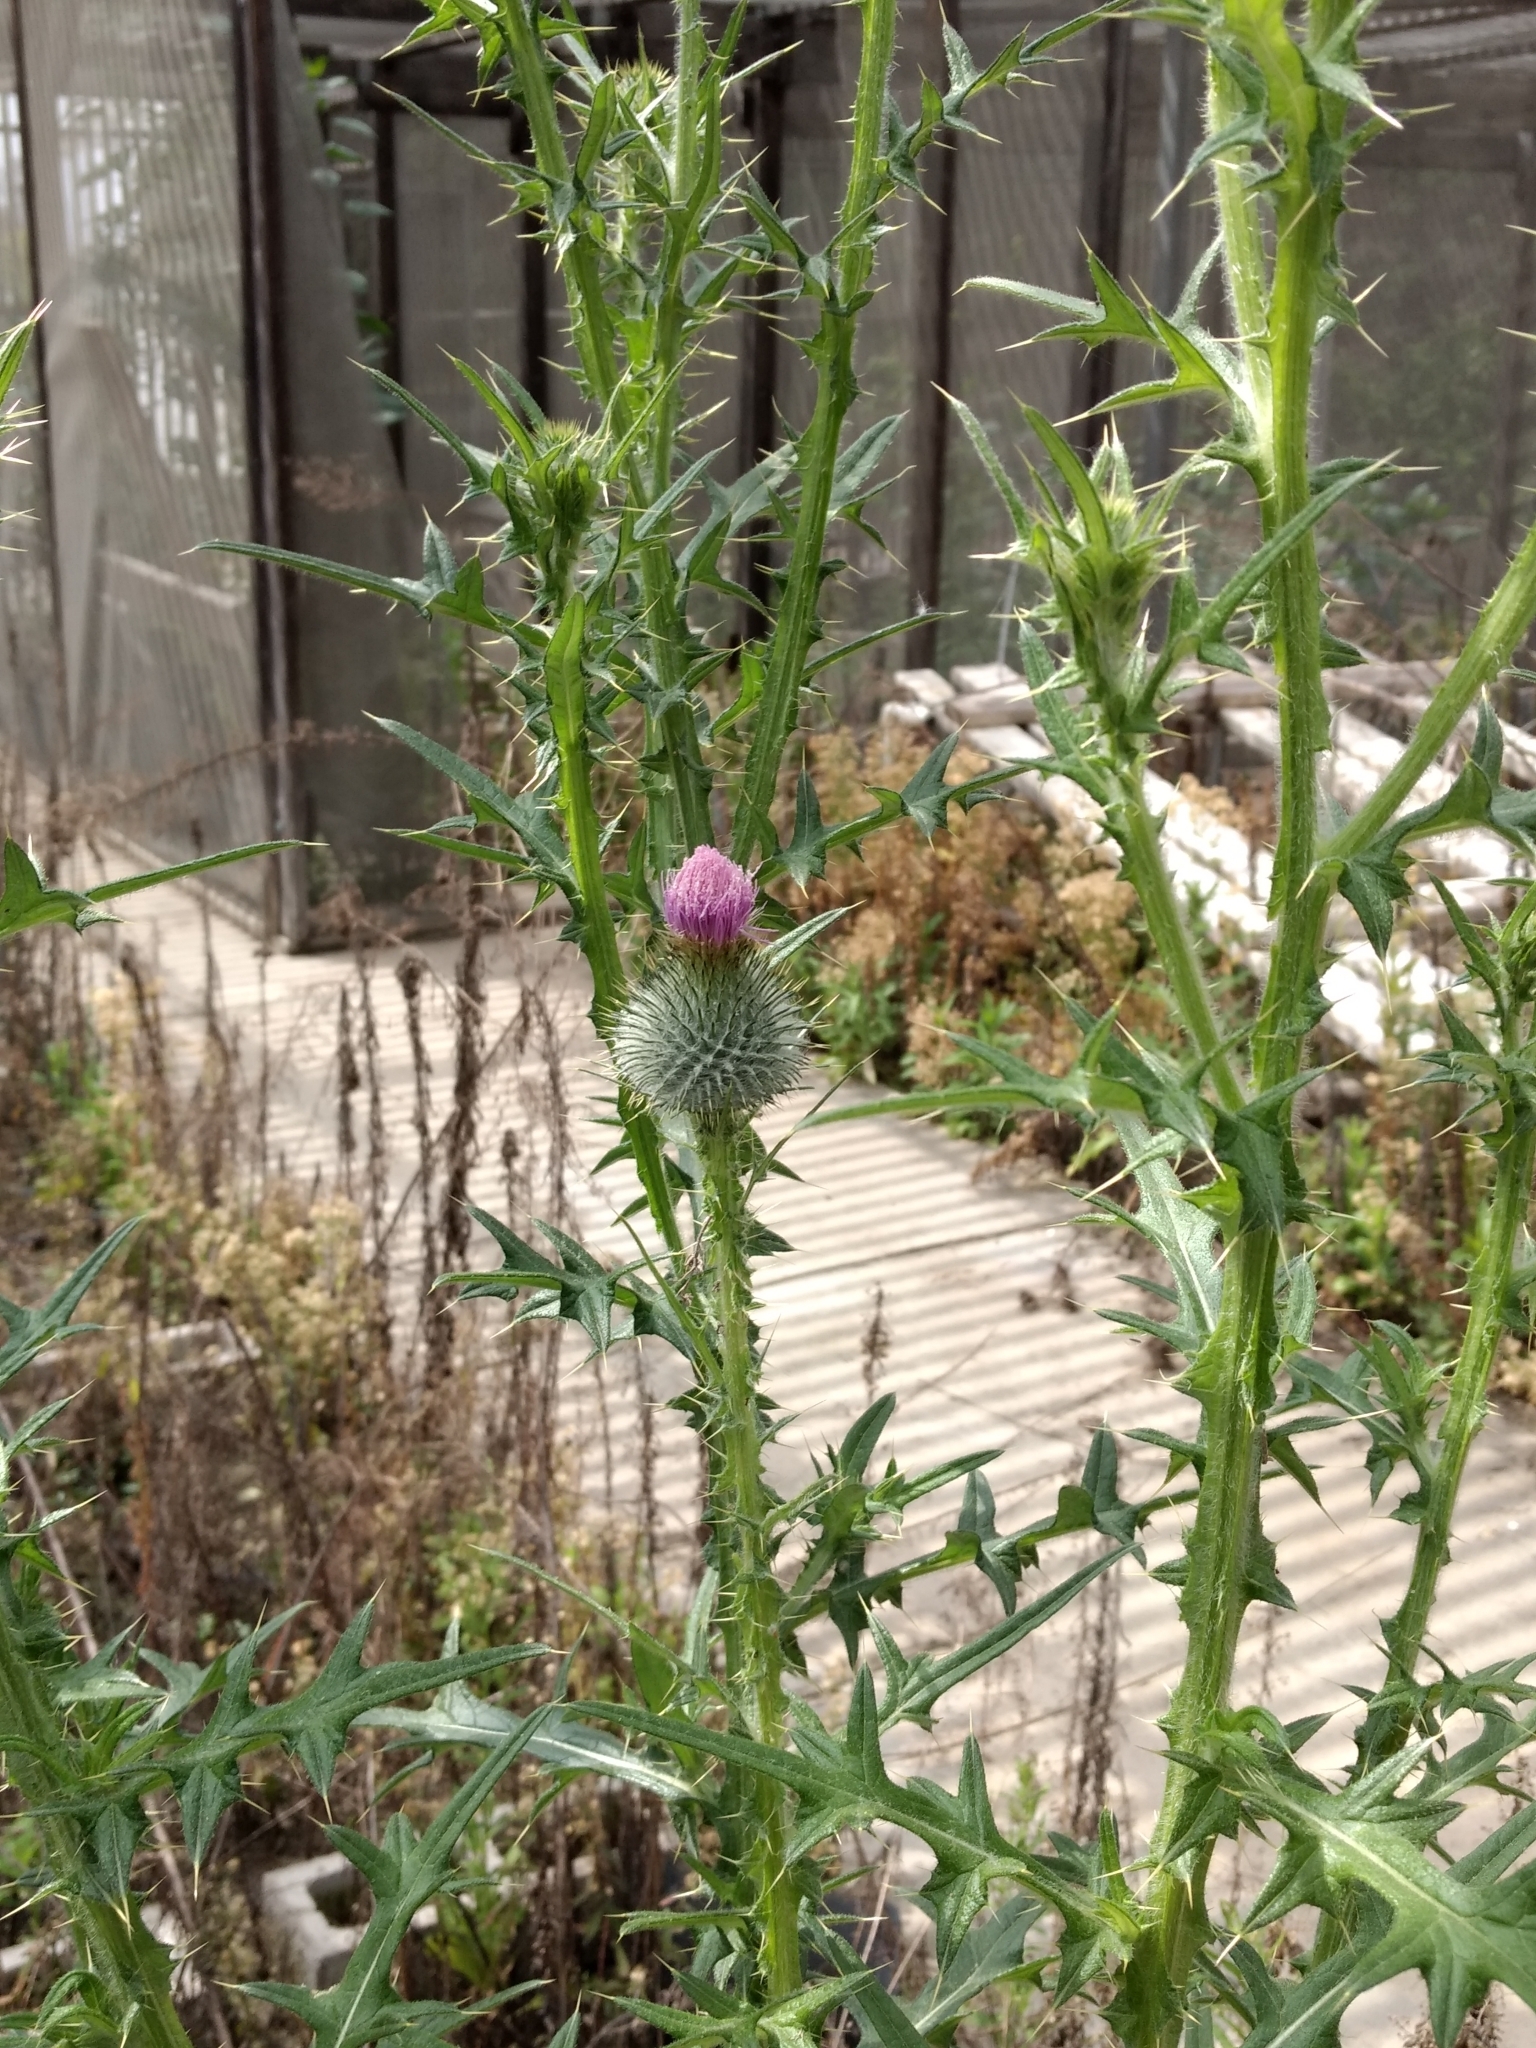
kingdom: Plantae
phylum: Tracheophyta
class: Magnoliopsida
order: Asterales
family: Asteraceae
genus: Cirsium
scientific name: Cirsium vulgare
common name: Bull thistle
